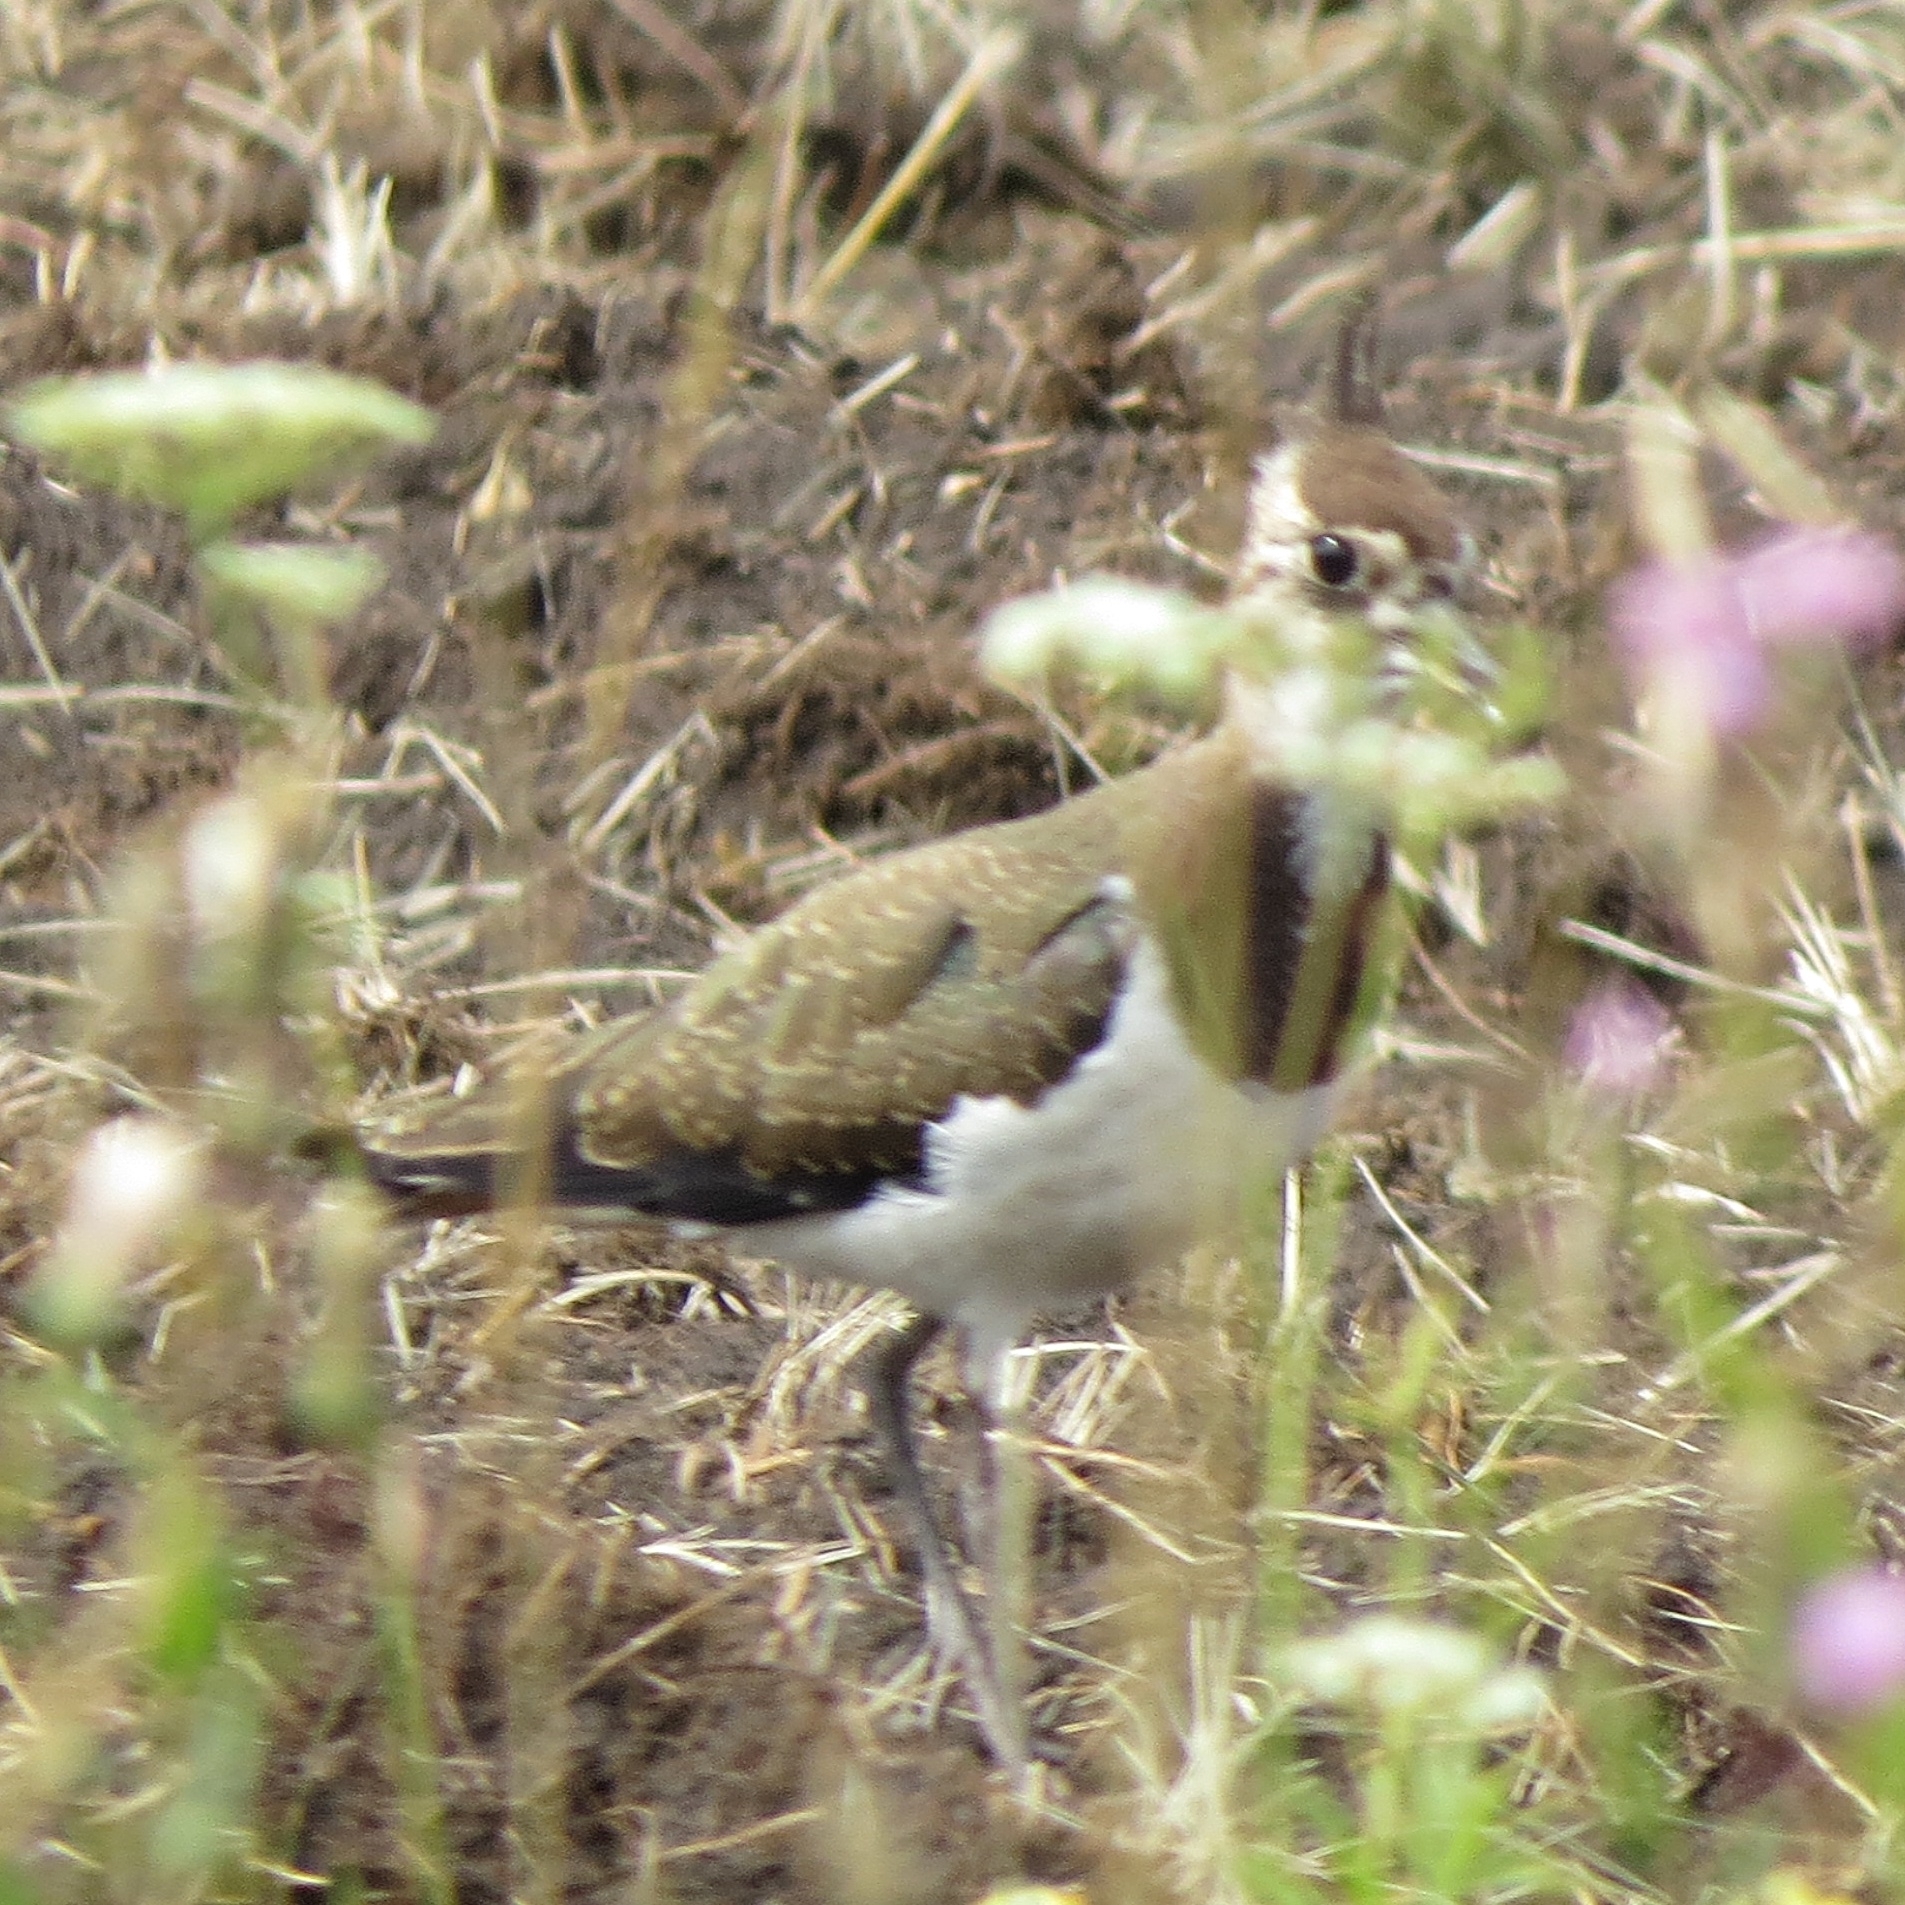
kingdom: Animalia
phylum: Chordata
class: Aves
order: Charadriiformes
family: Charadriidae
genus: Vanellus
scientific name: Vanellus vanellus
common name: Northern lapwing
